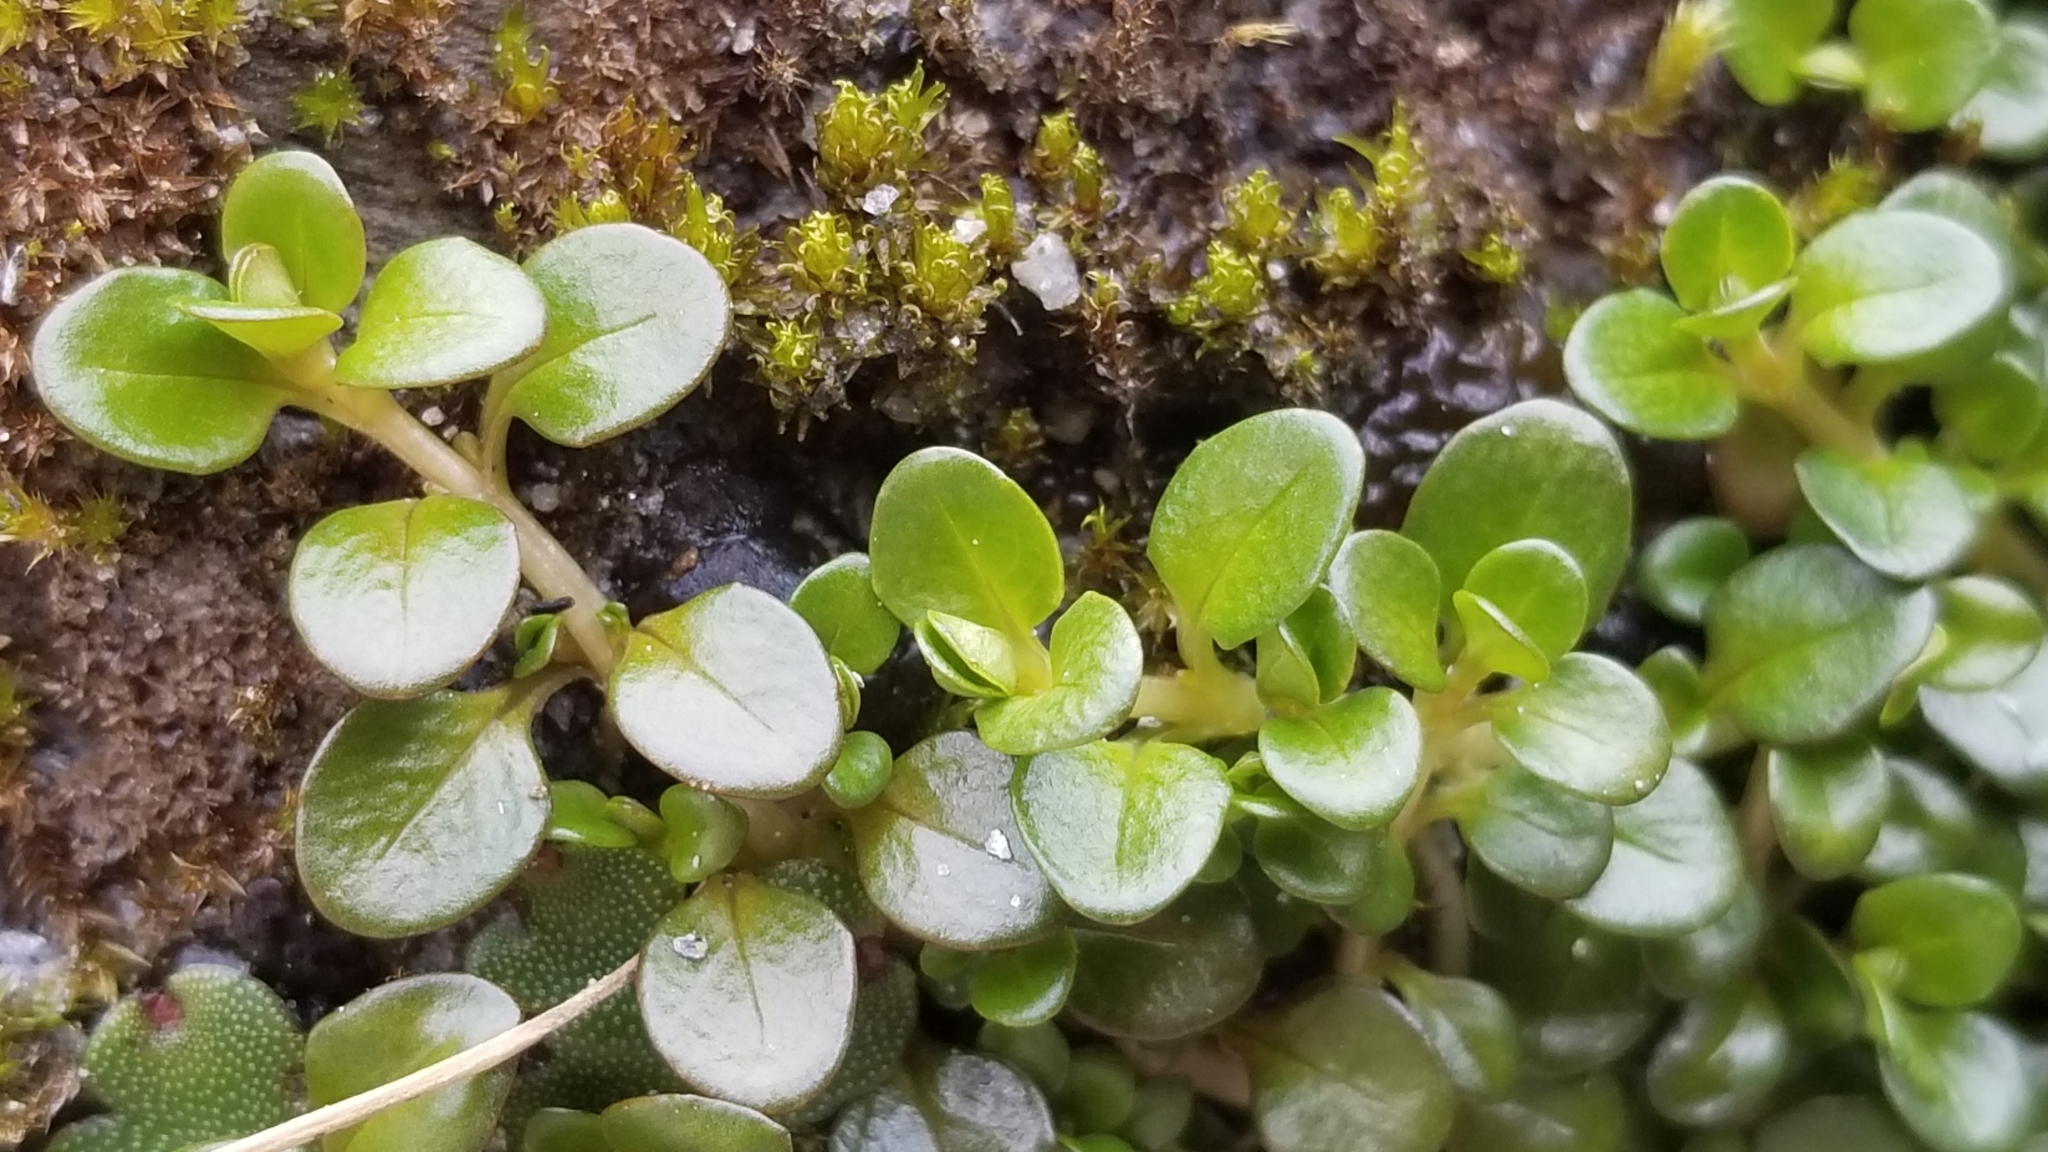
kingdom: Plantae
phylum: Tracheophyta
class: Magnoliopsida
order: Myrtales
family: Onagraceae
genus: Epilobium
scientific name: Epilobium brunnescens
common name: New zealand willowherb
